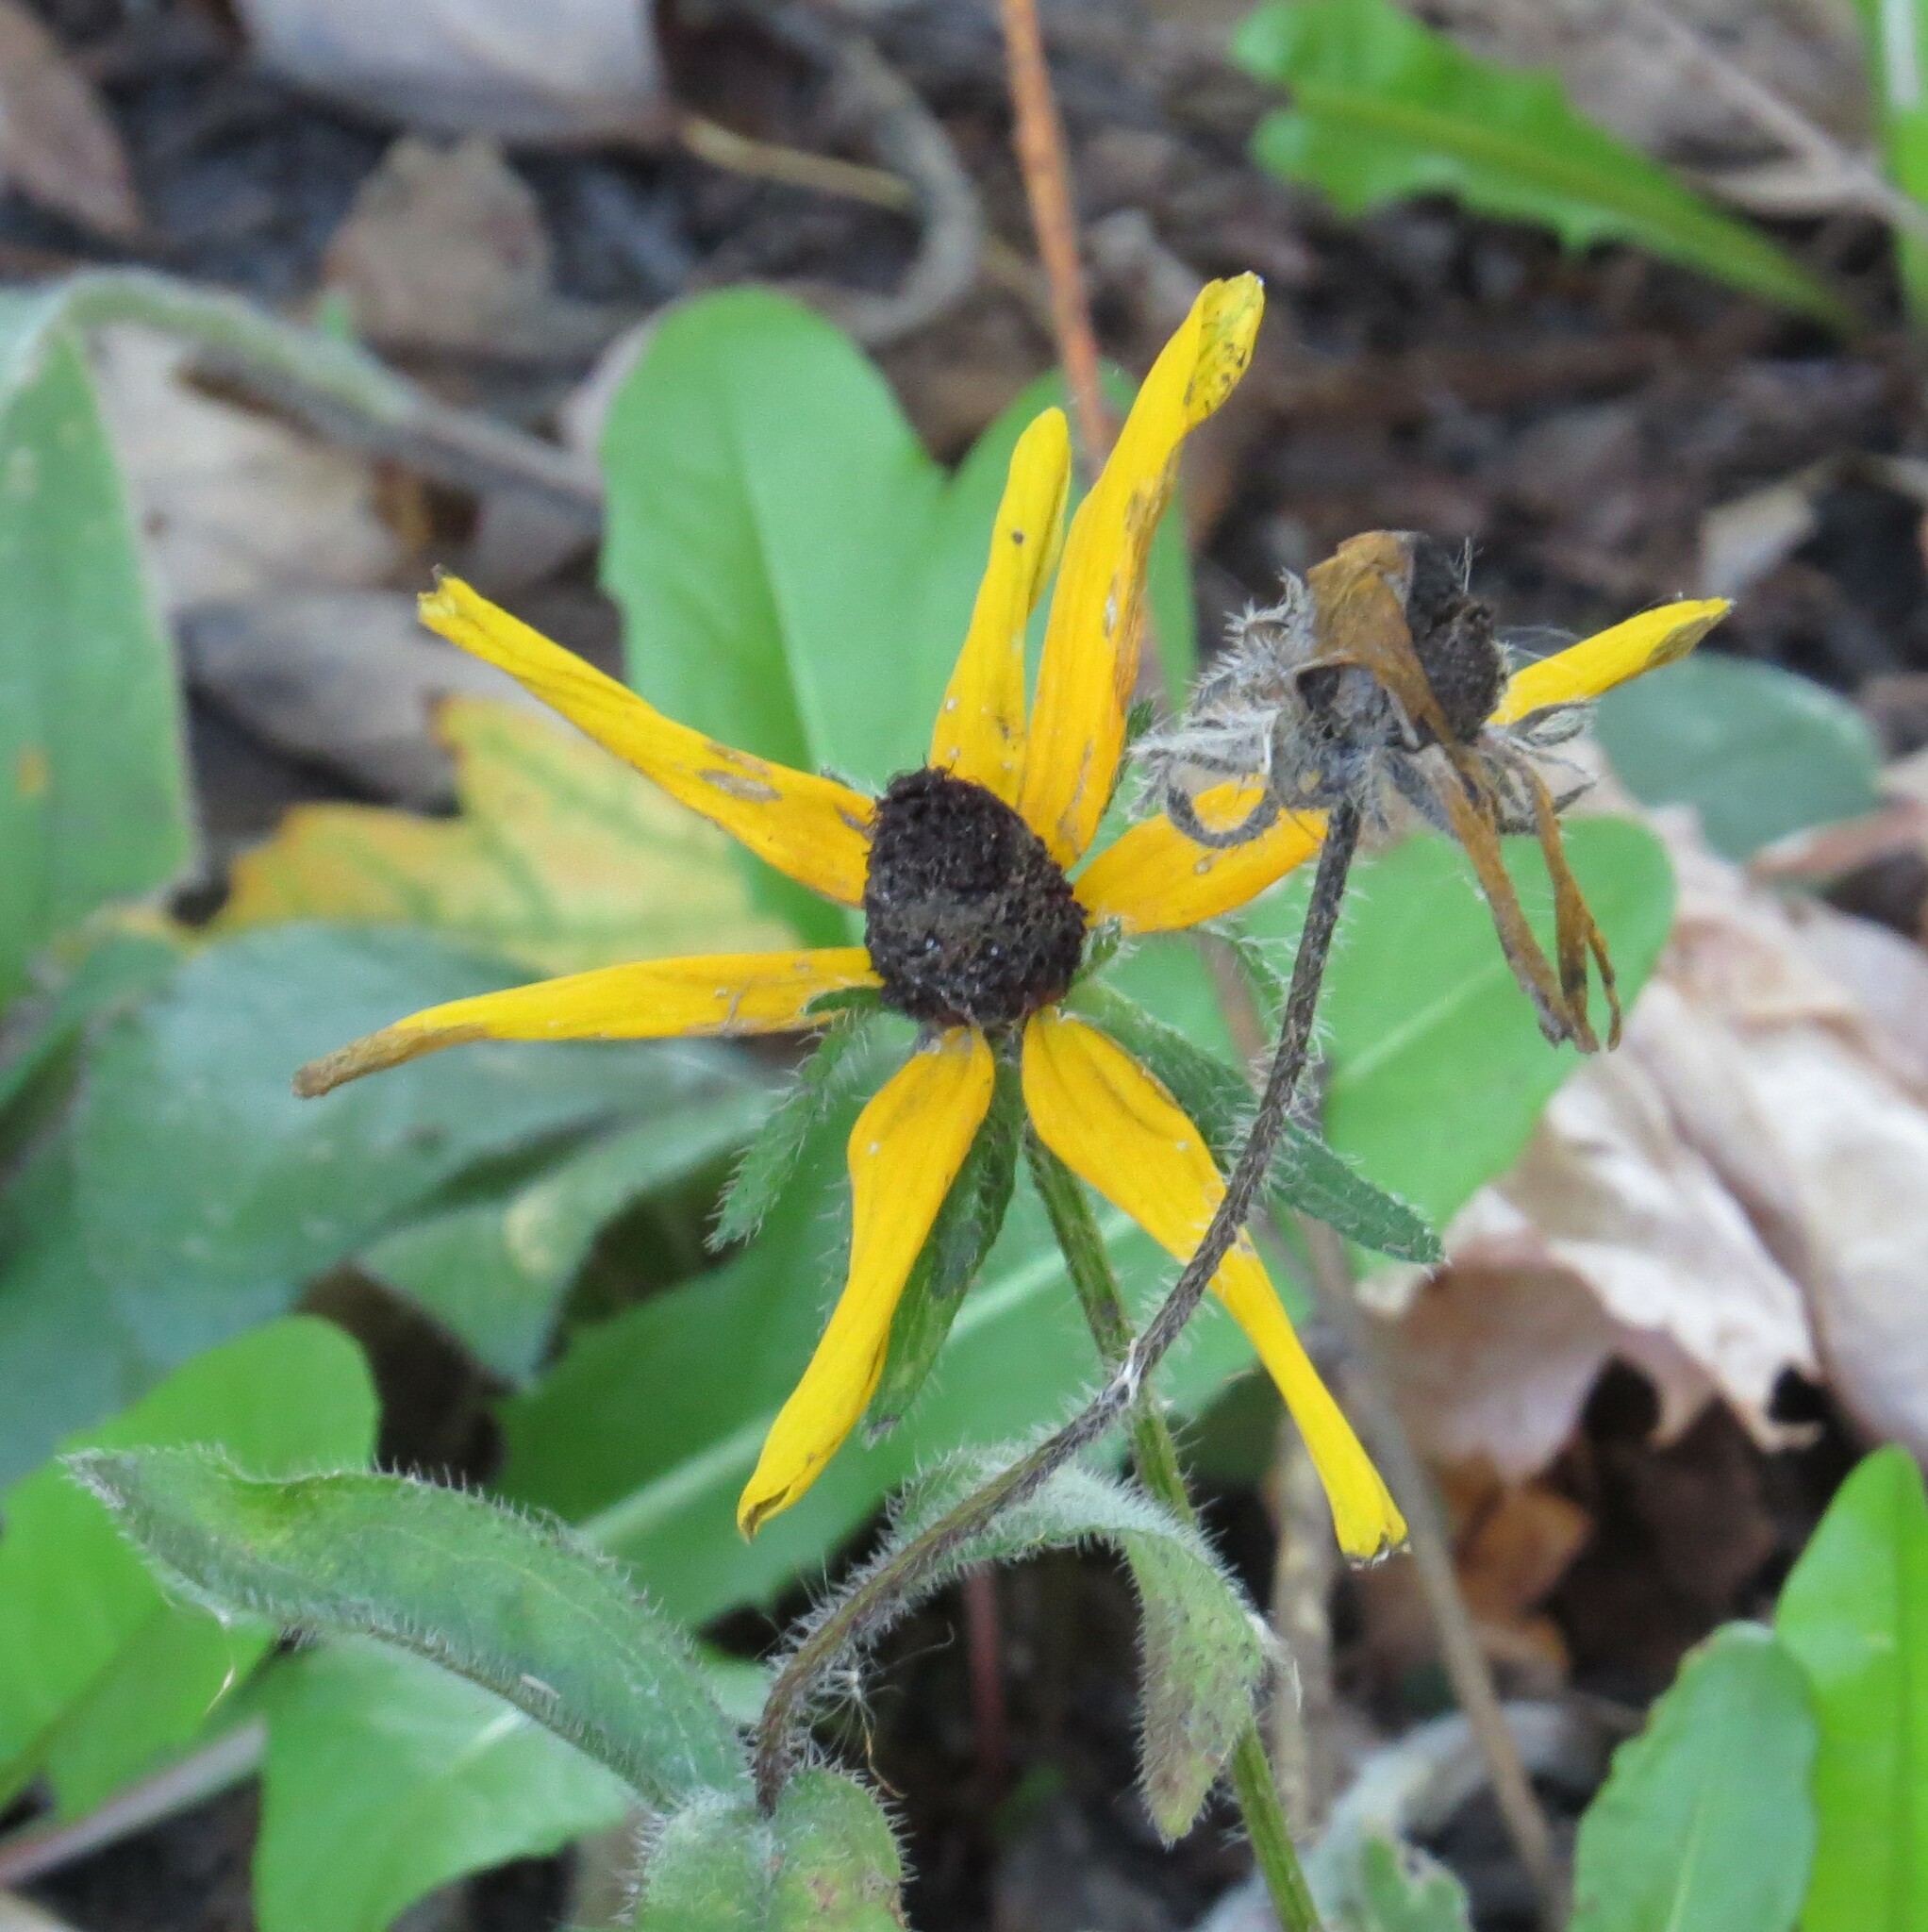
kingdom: Plantae
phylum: Tracheophyta
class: Magnoliopsida
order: Asterales
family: Asteraceae
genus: Rudbeckia
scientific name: Rudbeckia hirta
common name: Black-eyed-susan
